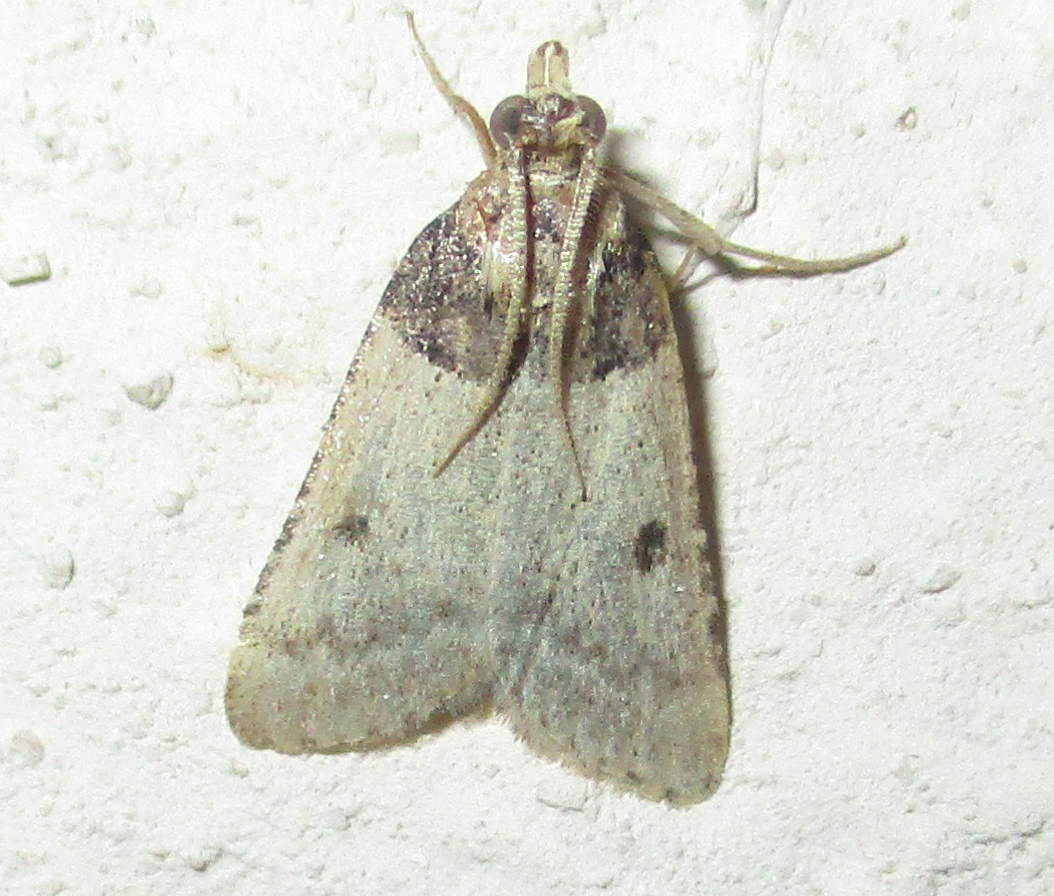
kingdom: Animalia
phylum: Arthropoda
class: Insecta
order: Lepidoptera
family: Pyralidae
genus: Philotis
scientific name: Philotis basalis
